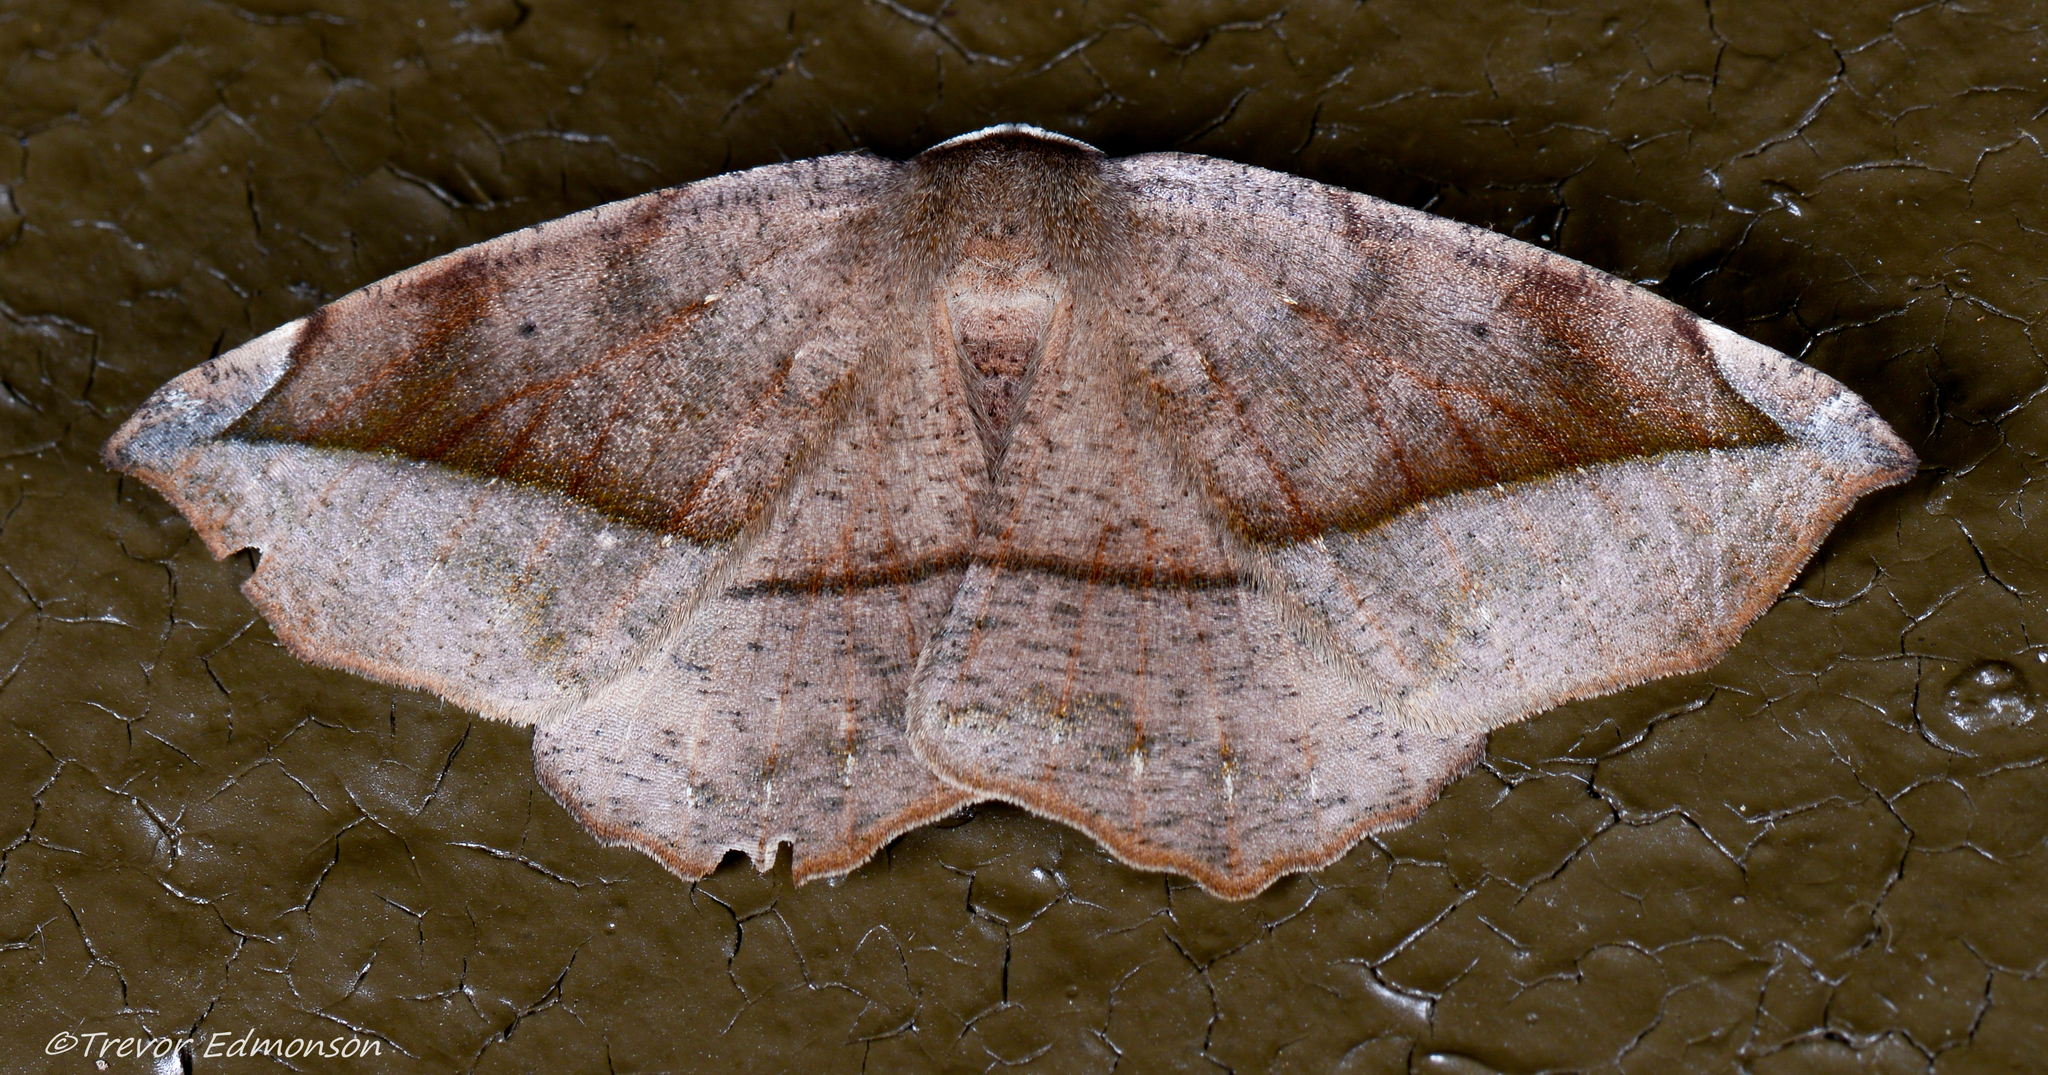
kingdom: Animalia
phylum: Arthropoda
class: Insecta
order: Lepidoptera
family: Geometridae
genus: Eutrapela
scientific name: Eutrapela clemataria
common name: Curved-toothed geometer
